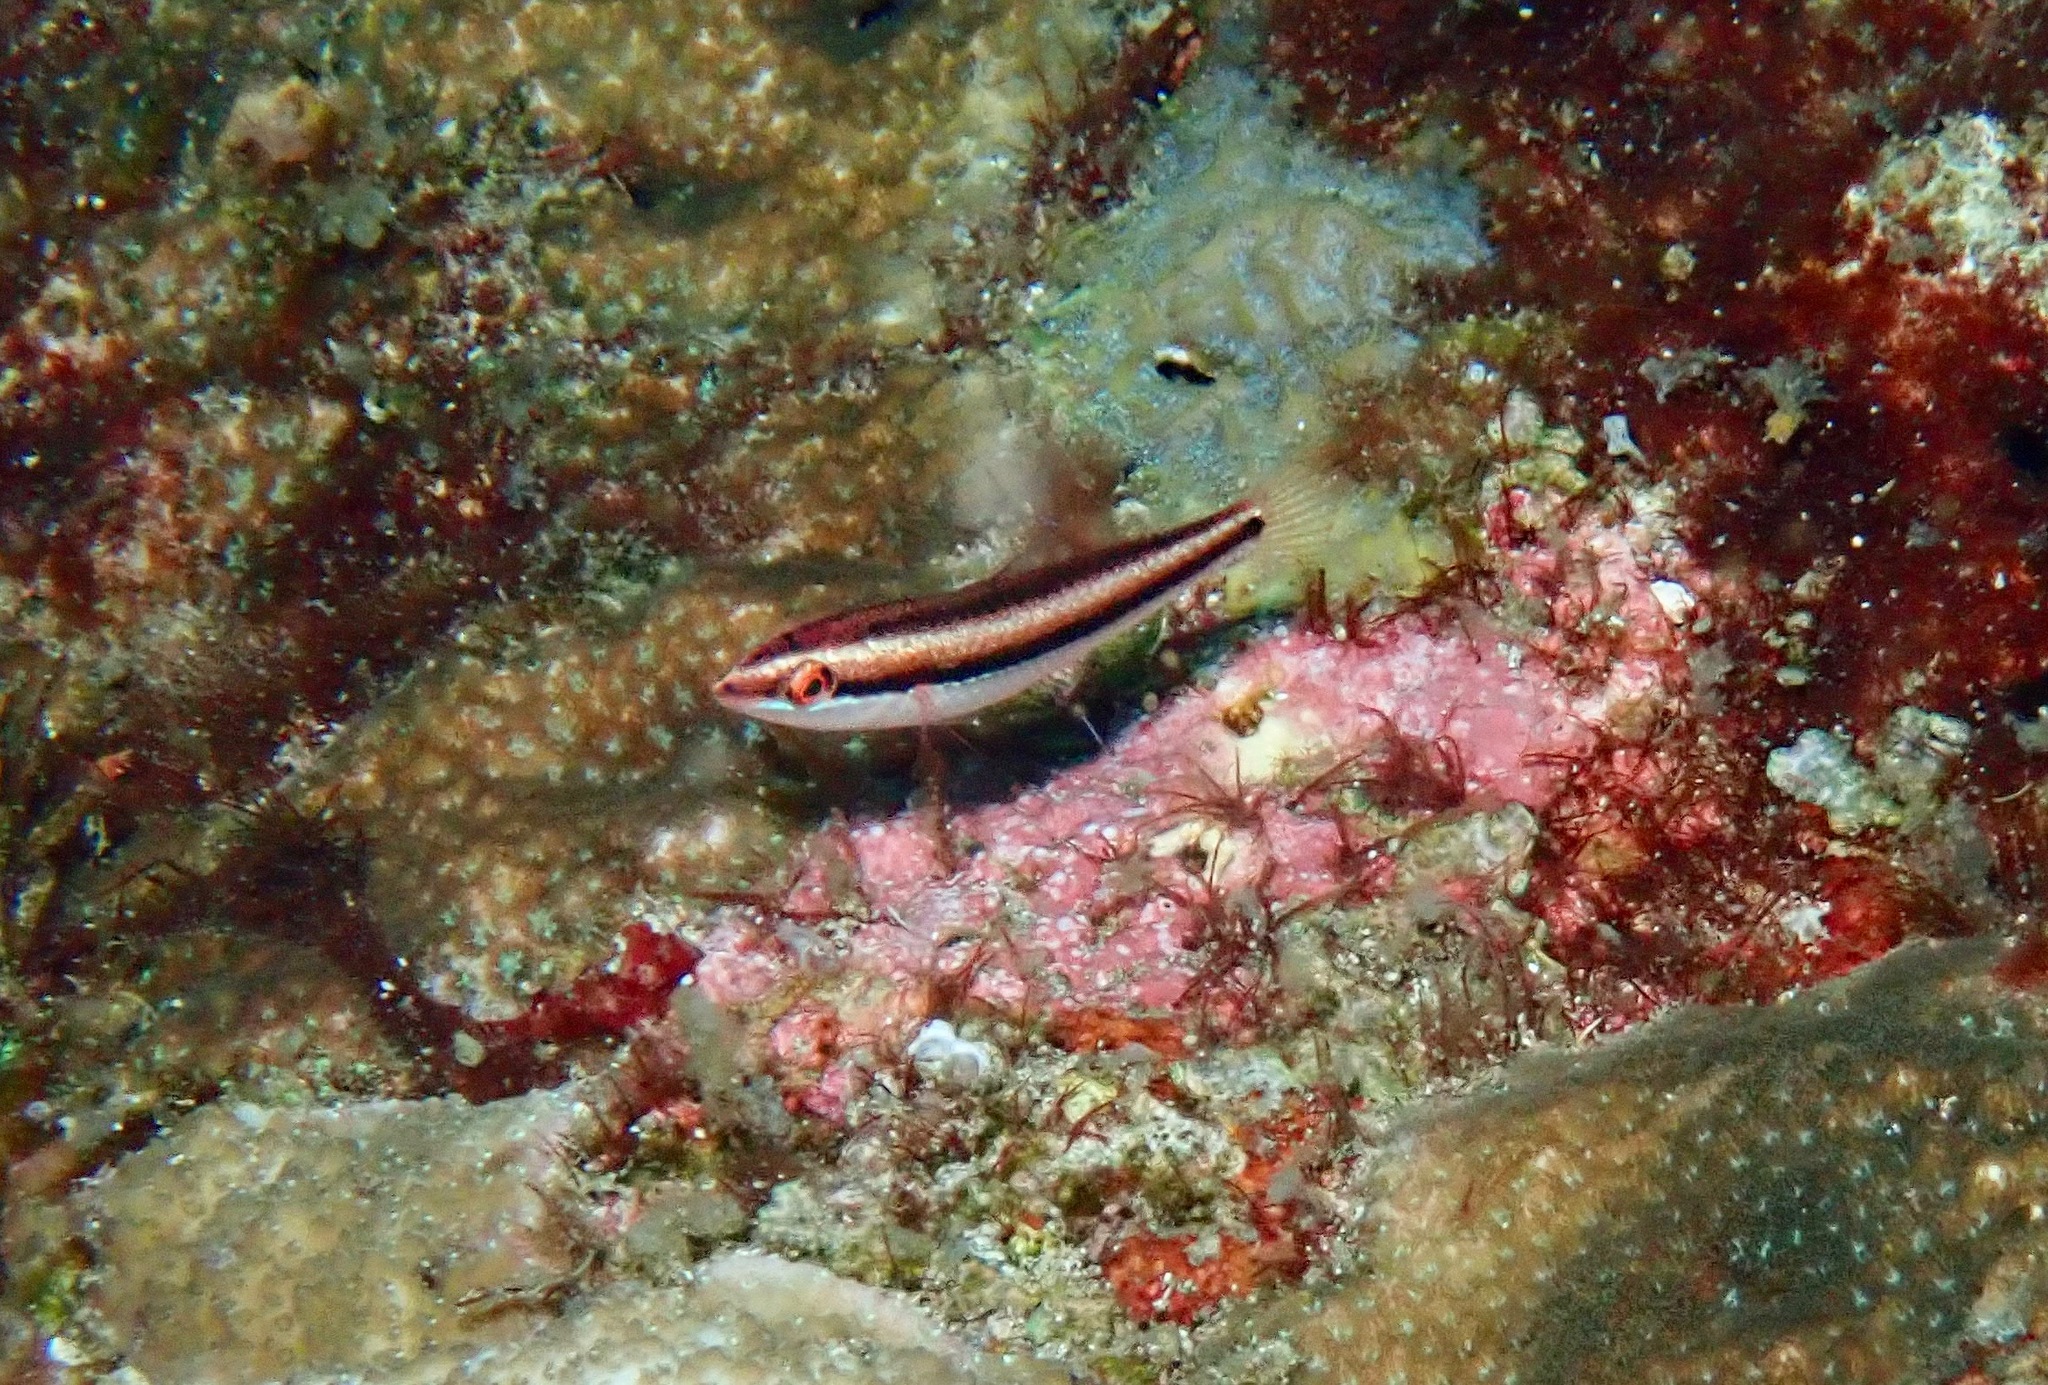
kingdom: Animalia
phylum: Chordata
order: Perciformes
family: Labridae
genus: Stethojulis
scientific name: Stethojulis interrupta
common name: Cutribbon wrasse
